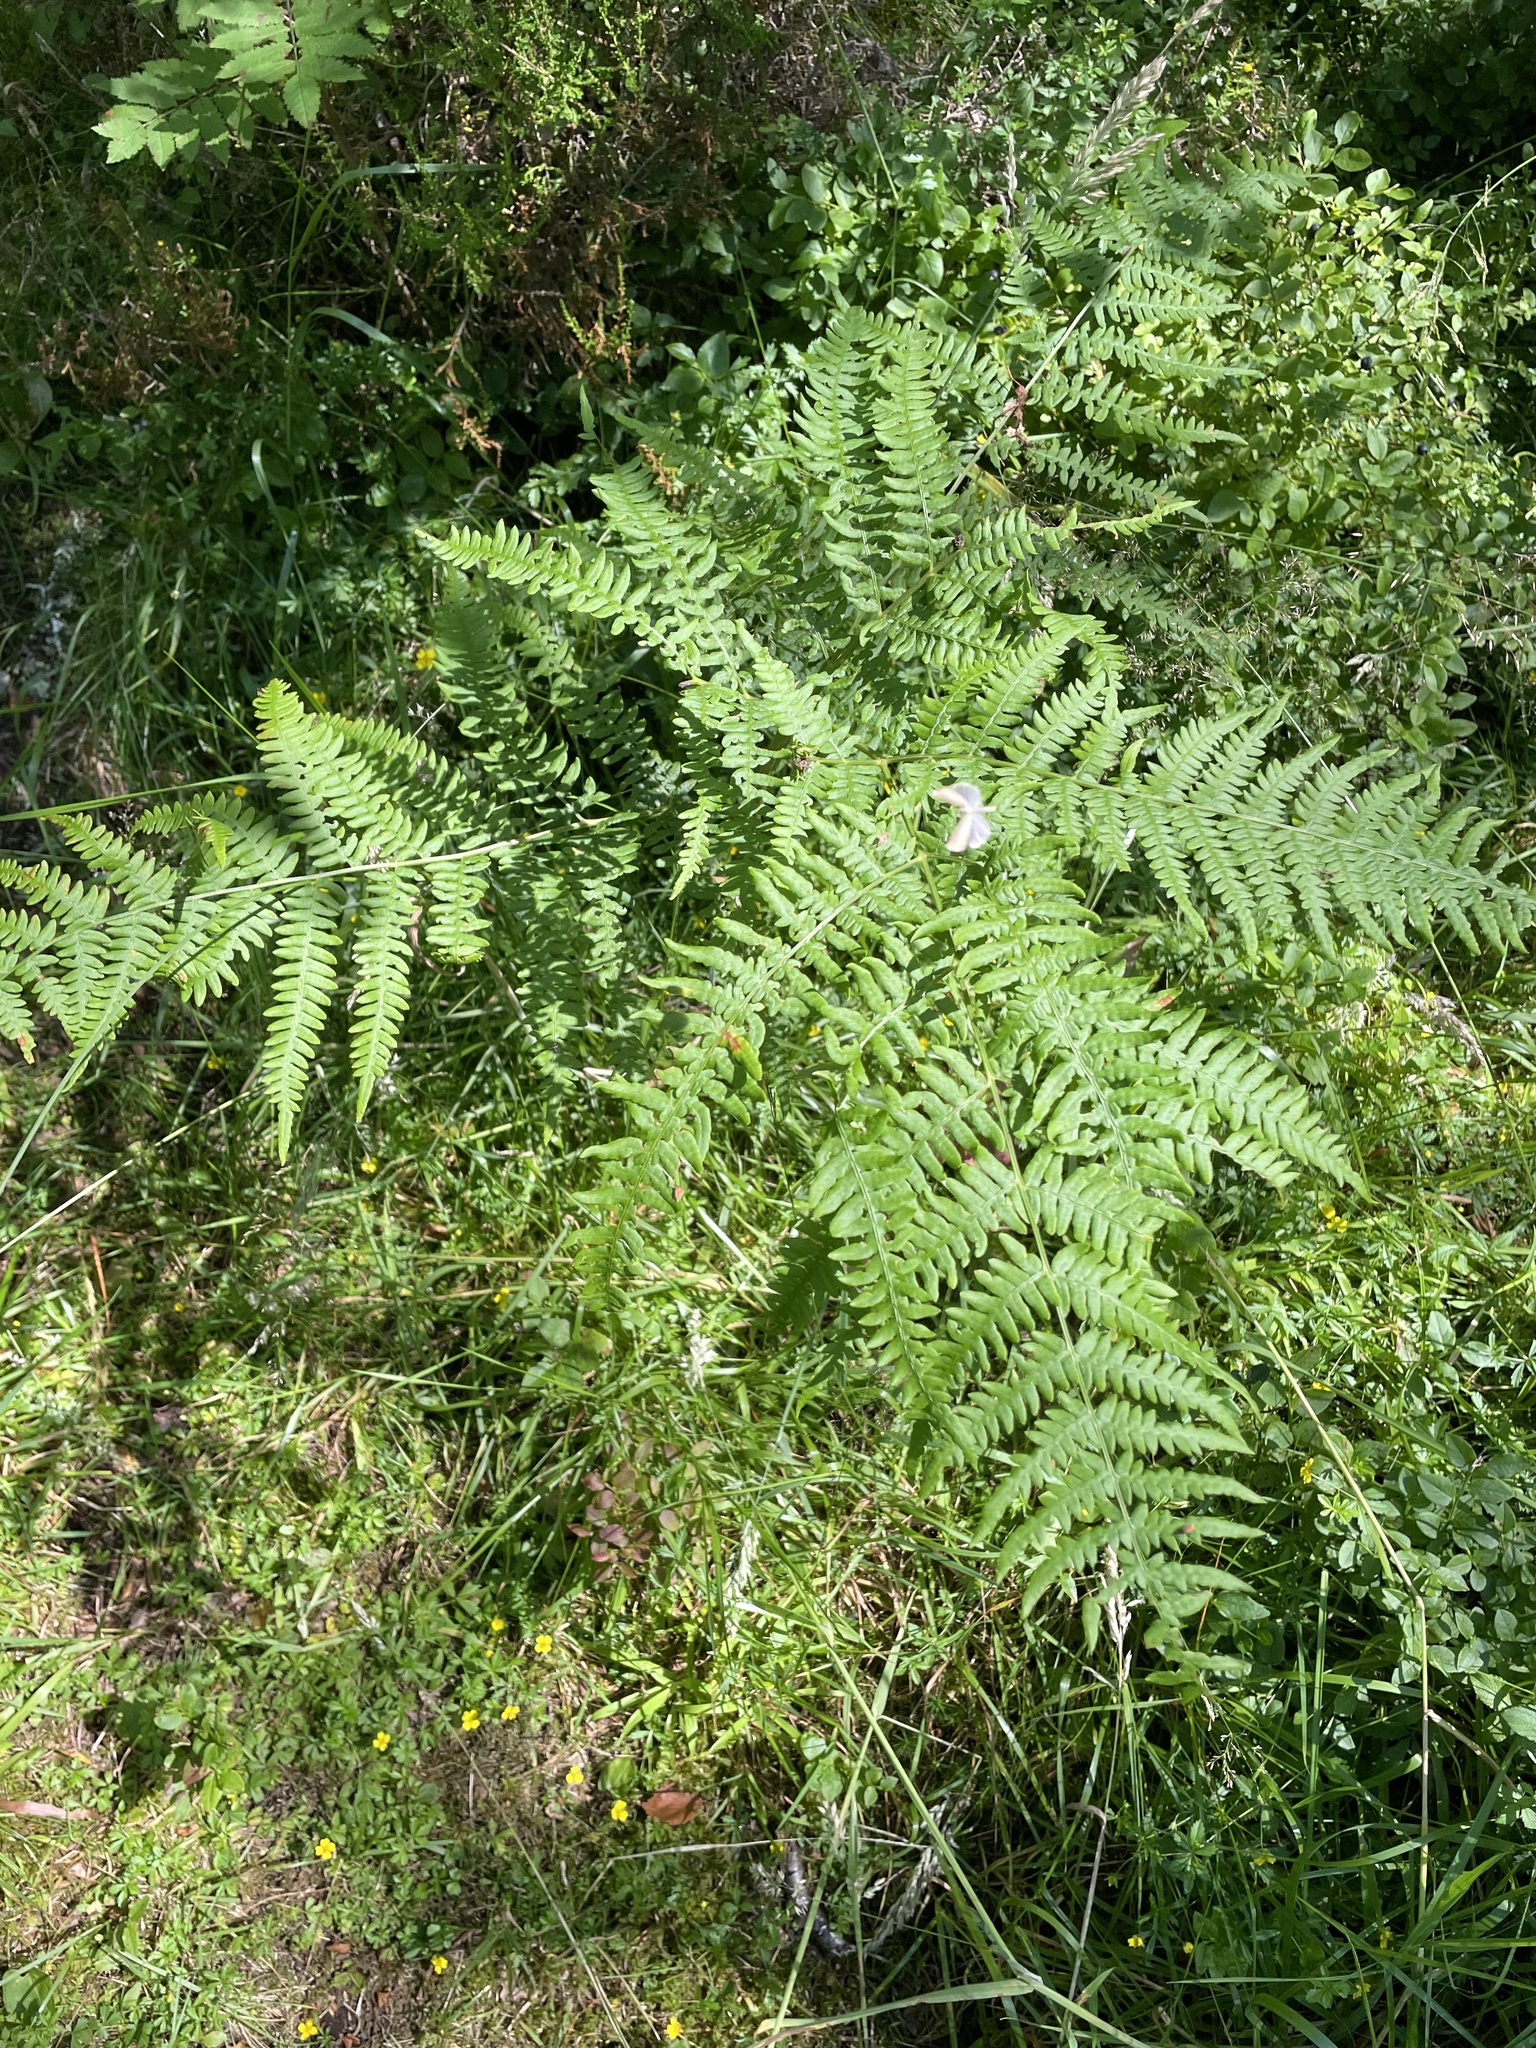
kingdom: Plantae
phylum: Tracheophyta
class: Polypodiopsida
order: Polypodiales
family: Dennstaedtiaceae
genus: Pteridium
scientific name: Pteridium aquilinum
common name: Bracken
